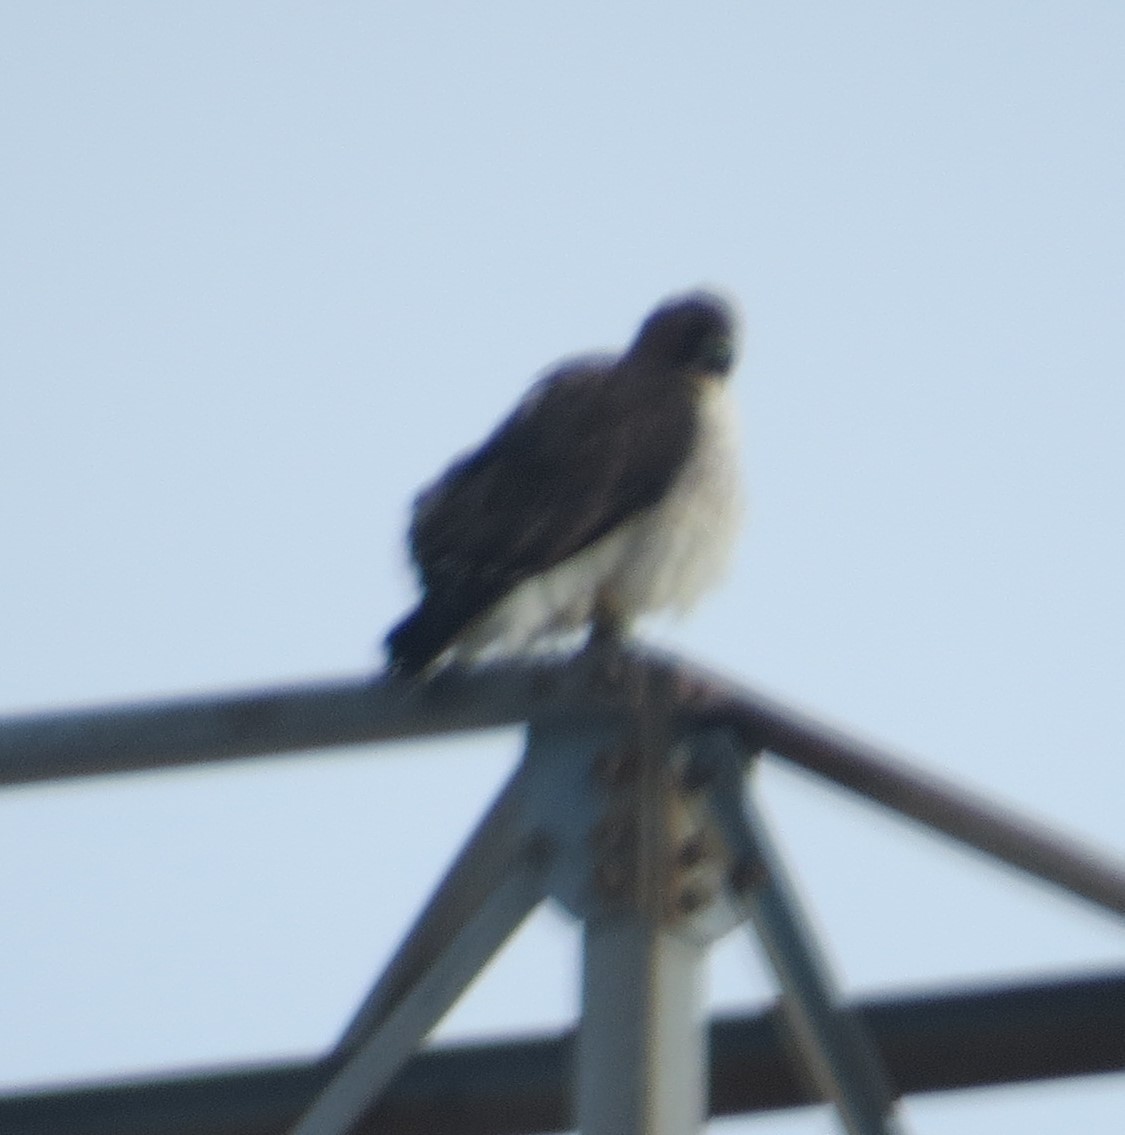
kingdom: Animalia
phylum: Chordata
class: Aves
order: Accipitriformes
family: Accipitridae
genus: Buteo
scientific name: Buteo jamaicensis
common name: Red-tailed hawk
